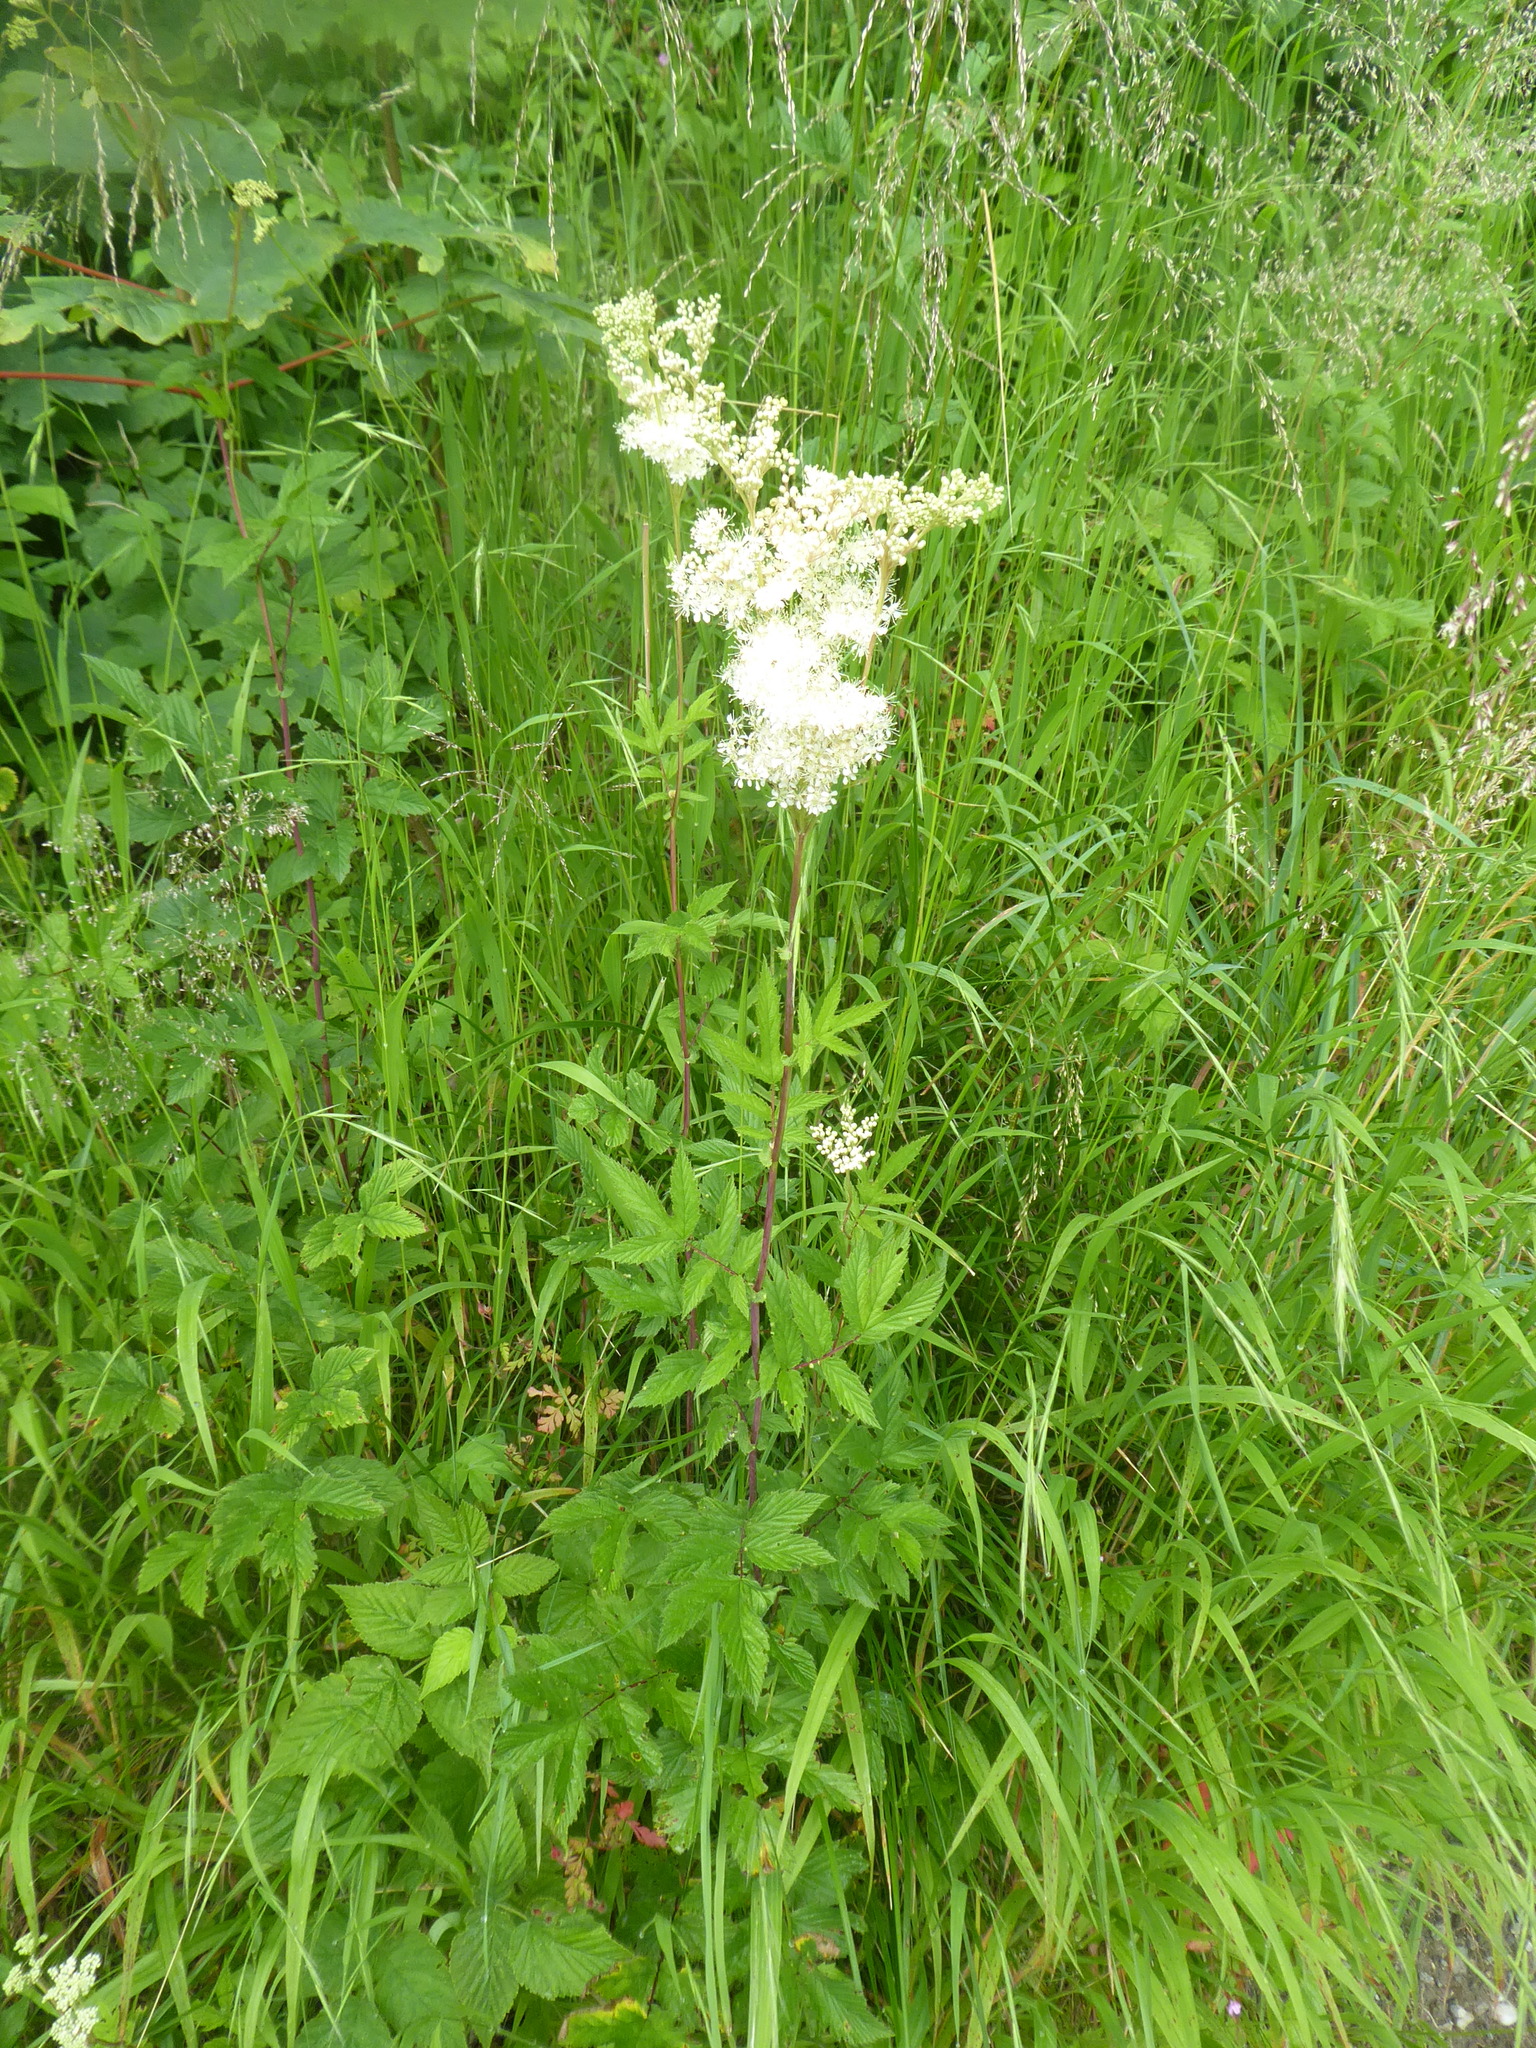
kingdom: Plantae
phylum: Tracheophyta
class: Magnoliopsida
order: Rosales
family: Rosaceae
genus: Filipendula
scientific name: Filipendula ulmaria
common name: Meadowsweet
